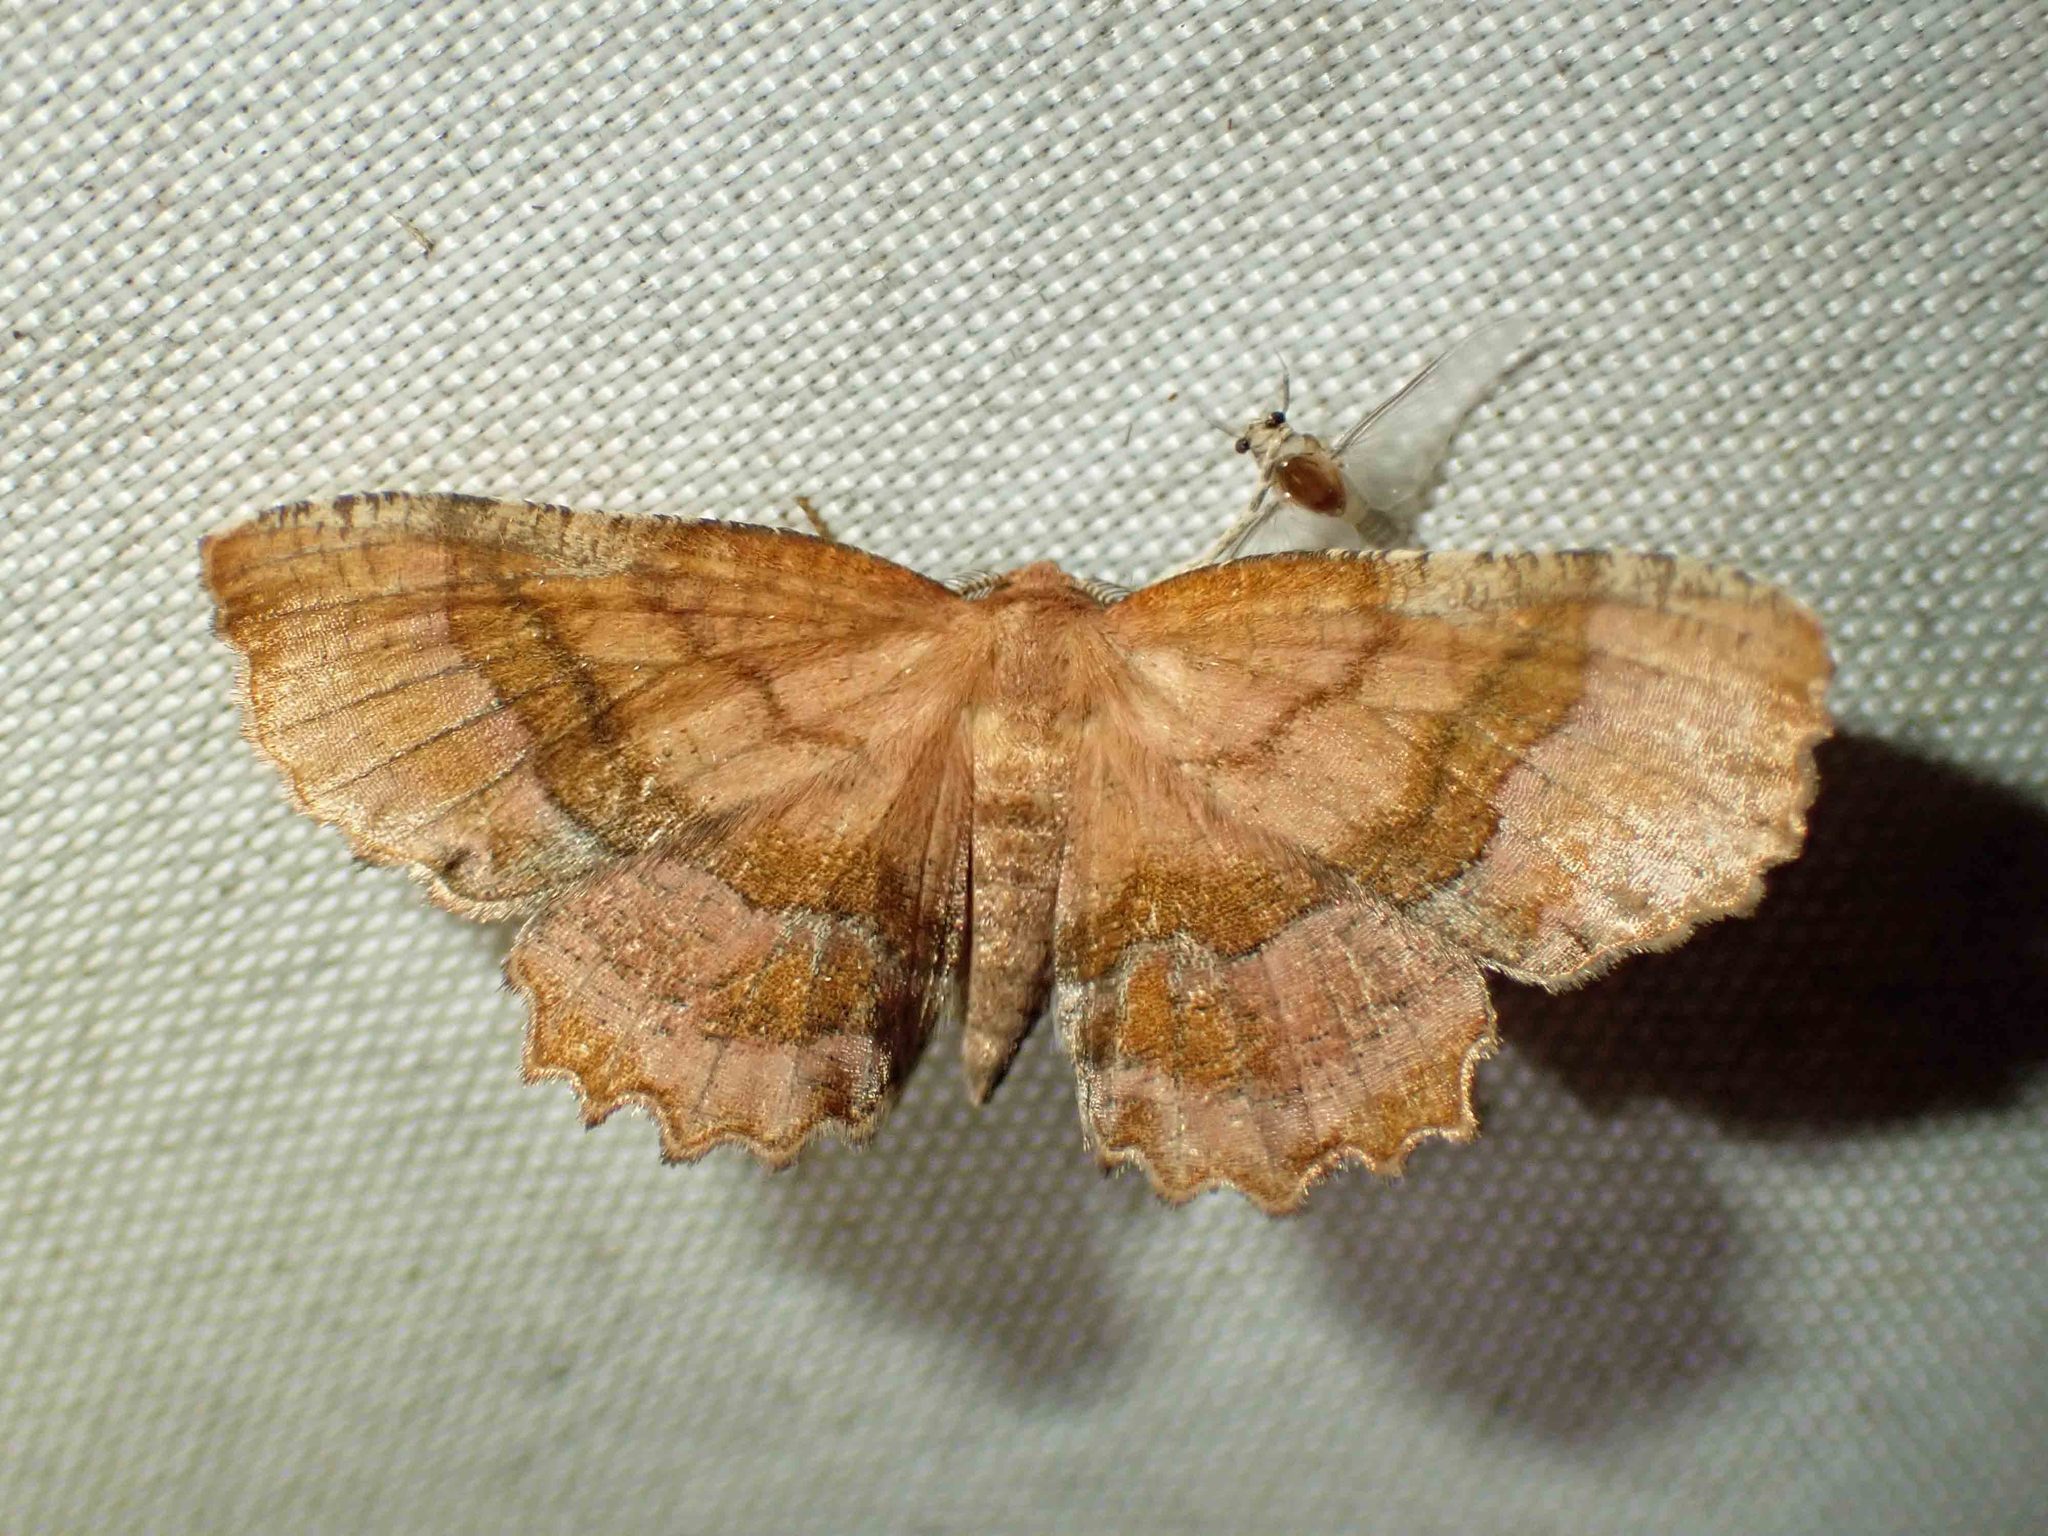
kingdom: Animalia
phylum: Arthropoda
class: Insecta
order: Lepidoptera
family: Geometridae
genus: Cepphis
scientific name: Cepphis armataria
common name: Scallop moth
